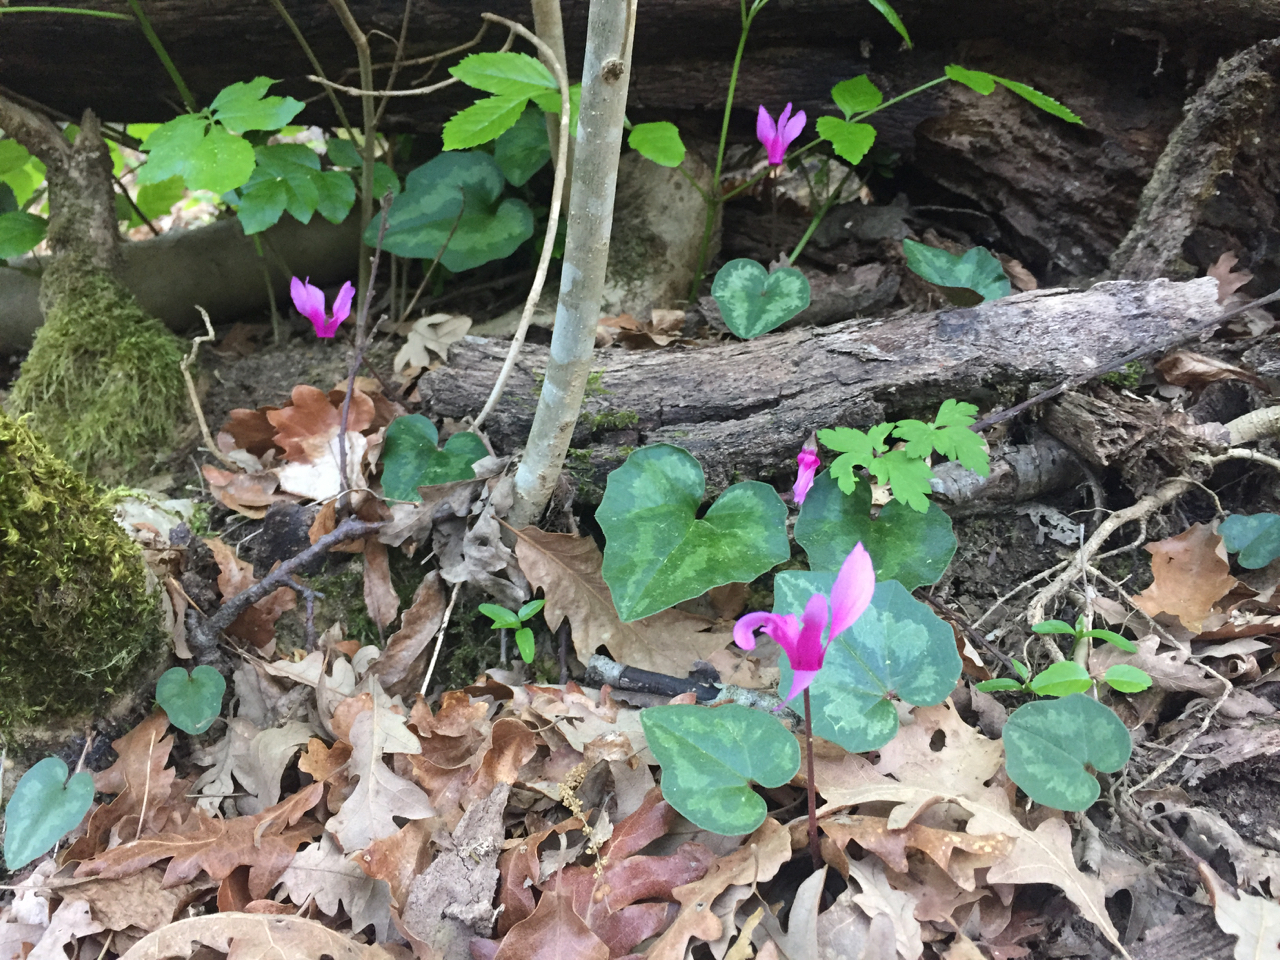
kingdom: Plantae
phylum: Tracheophyta
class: Magnoliopsida
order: Ericales
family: Primulaceae
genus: Cyclamen
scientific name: Cyclamen repandum
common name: Spring sowbread
